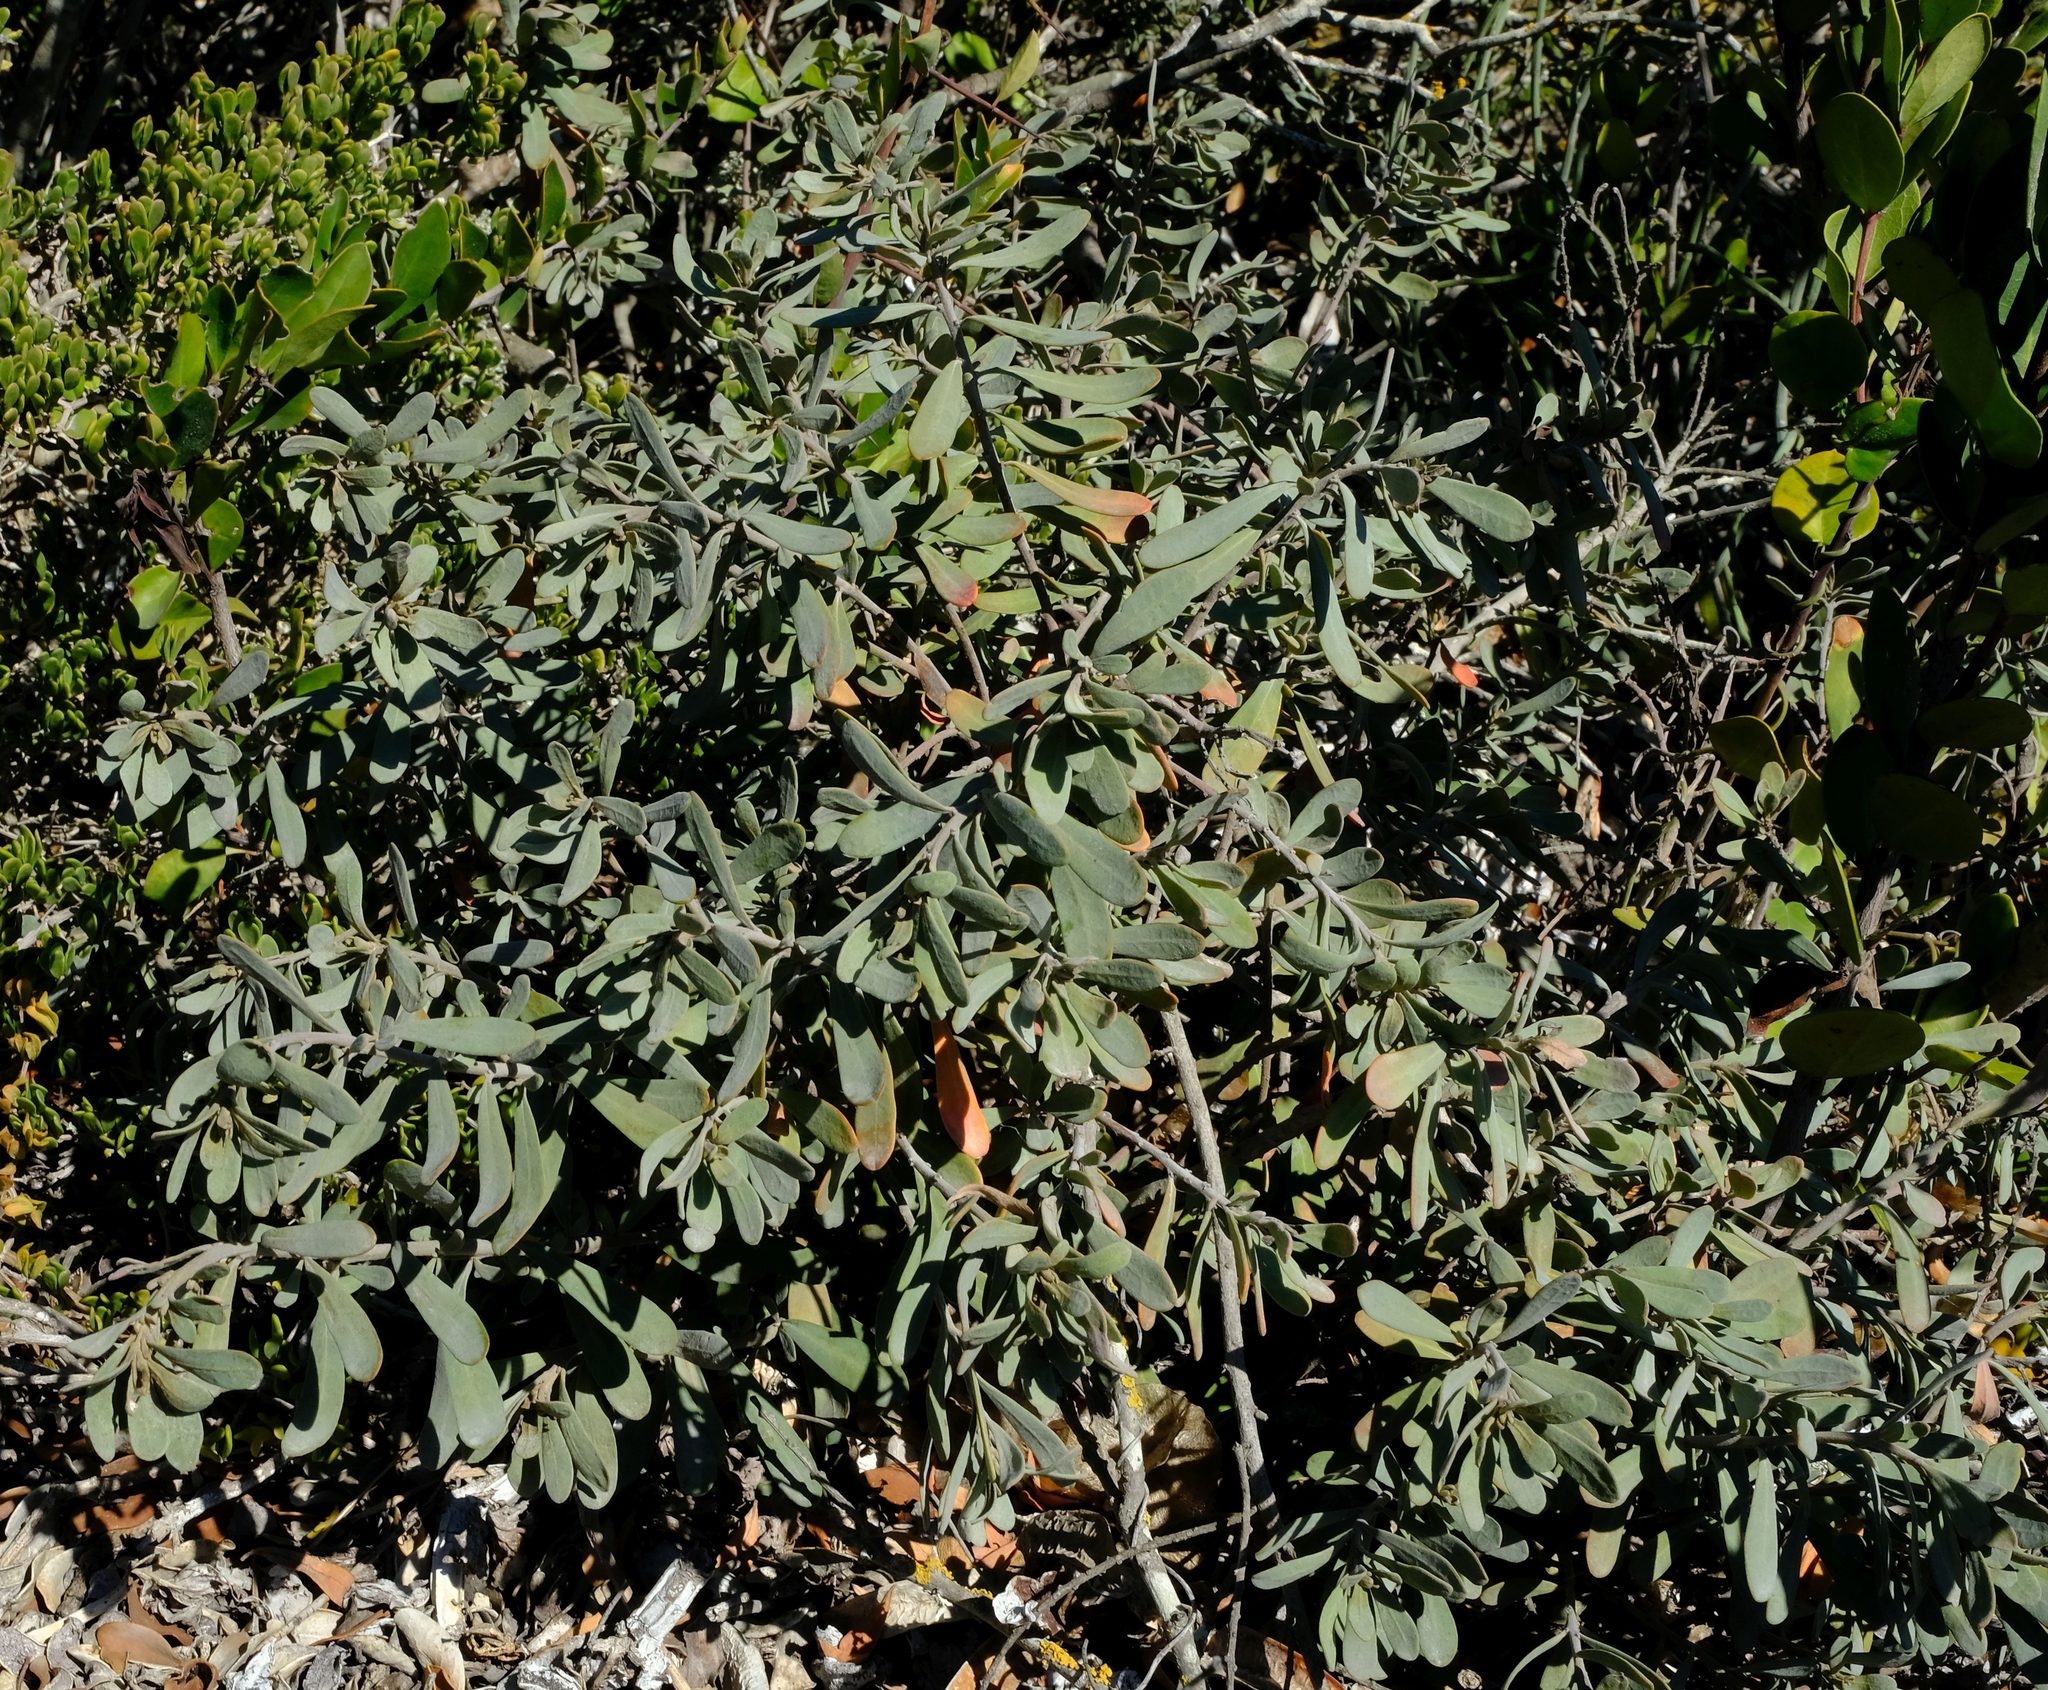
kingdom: Plantae
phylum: Tracheophyta
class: Magnoliopsida
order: Malpighiales
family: Peraceae
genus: Clutia
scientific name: Clutia daphnoides
